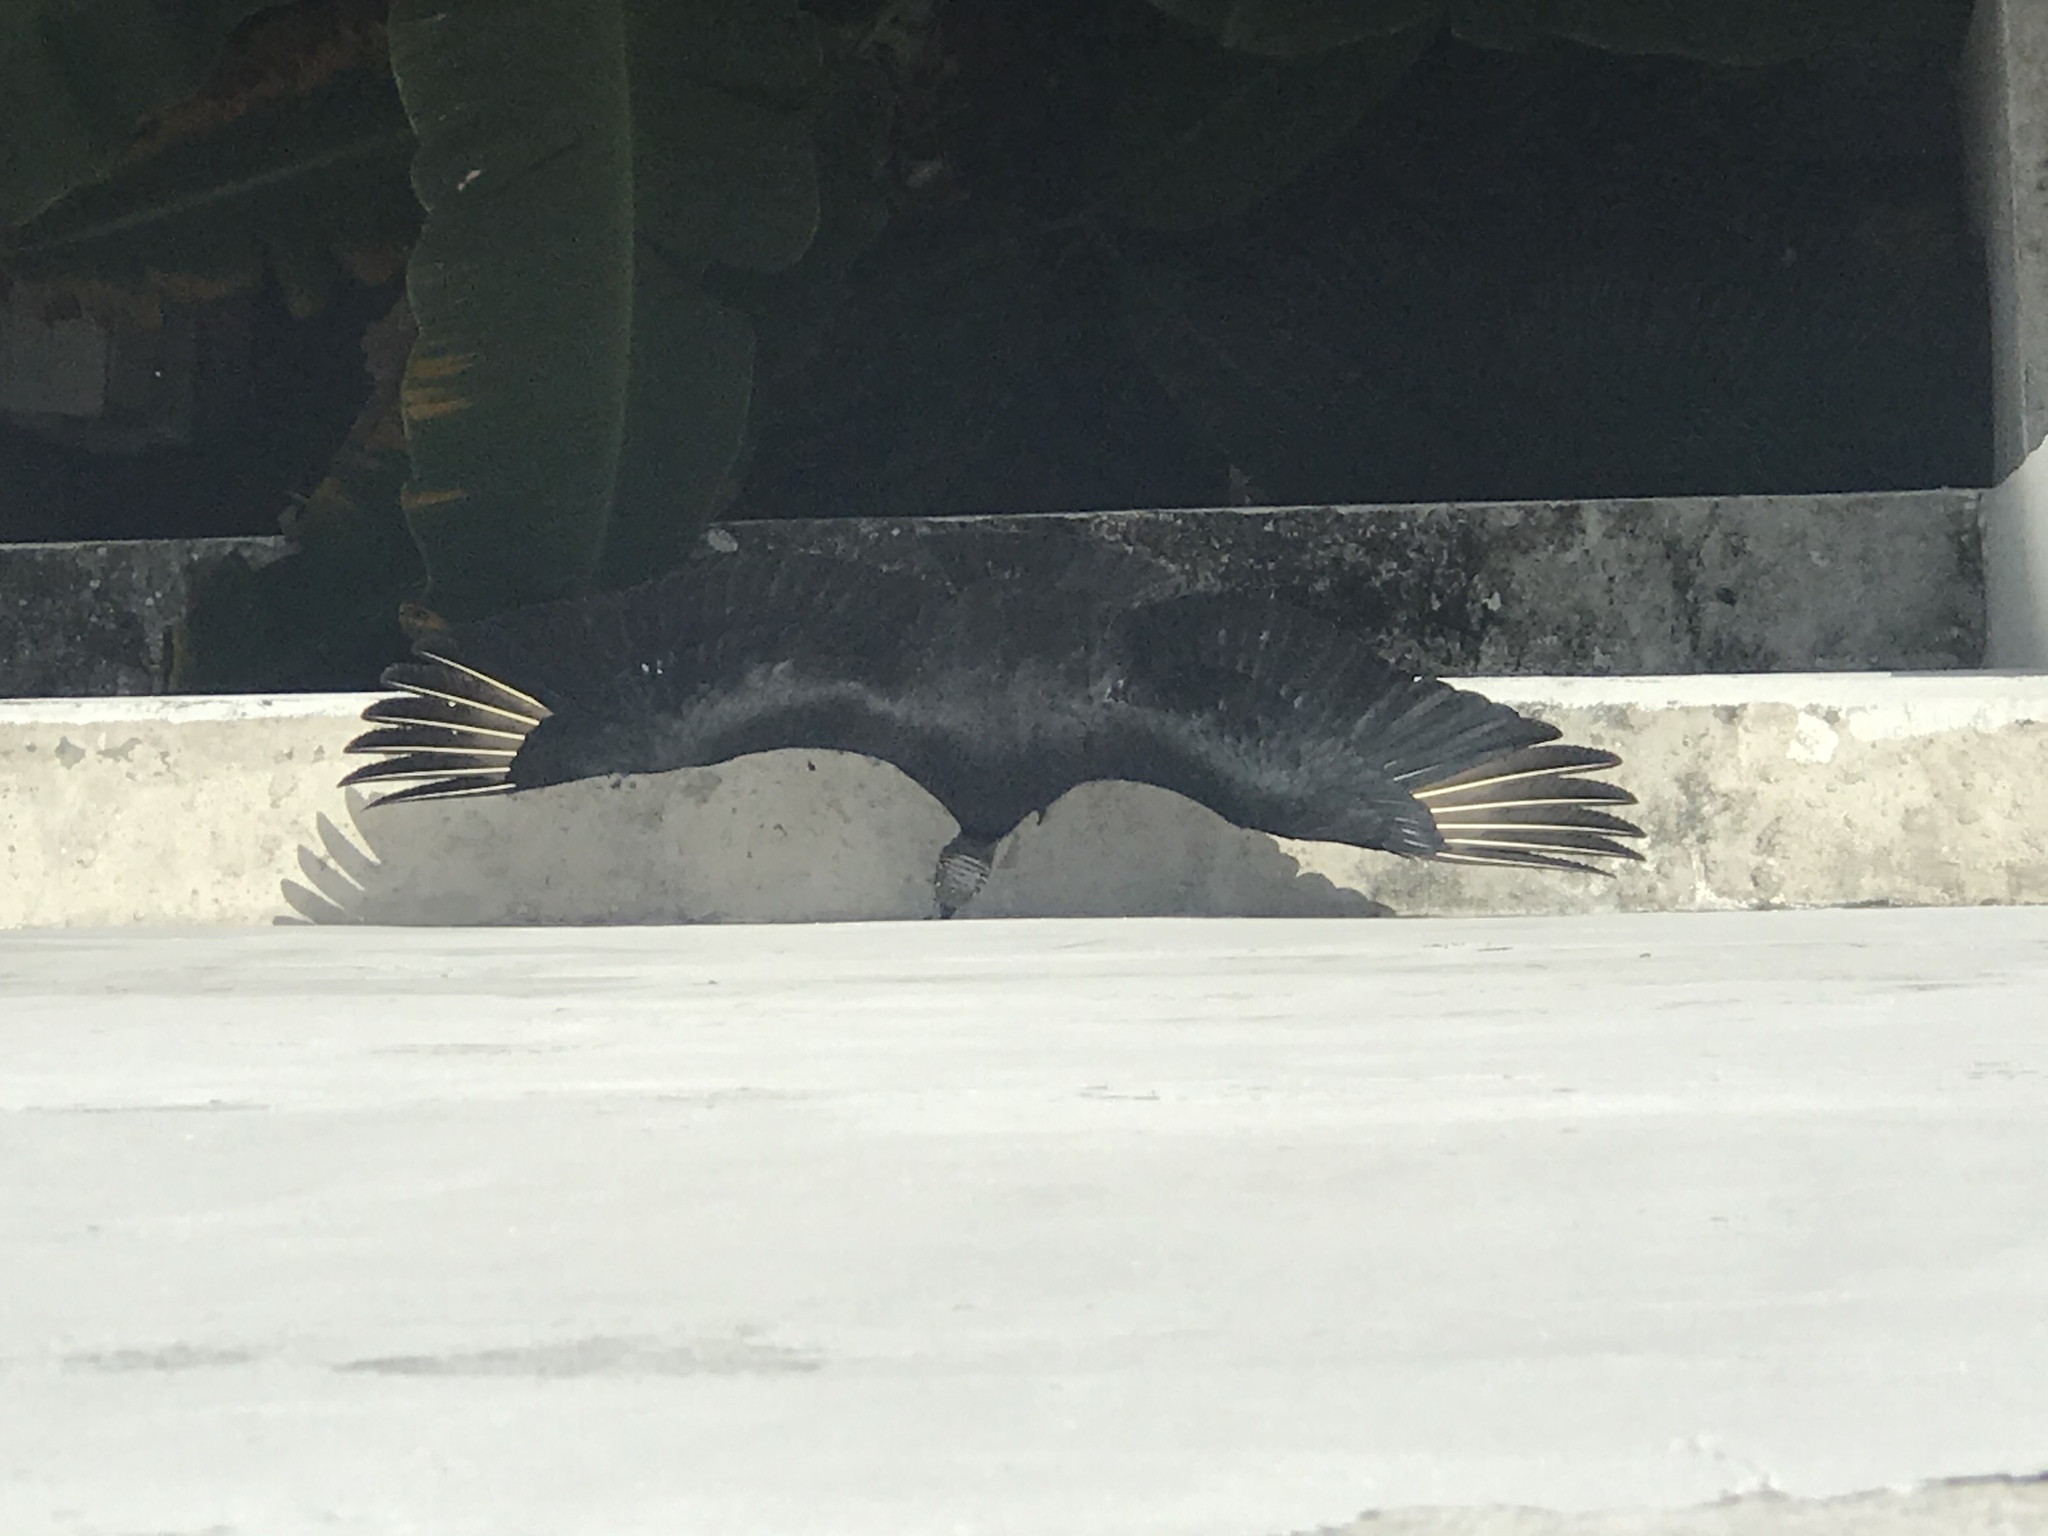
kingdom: Animalia
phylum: Chordata
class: Aves
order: Accipitriformes
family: Cathartidae
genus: Coragyps
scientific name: Coragyps atratus
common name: Black vulture
